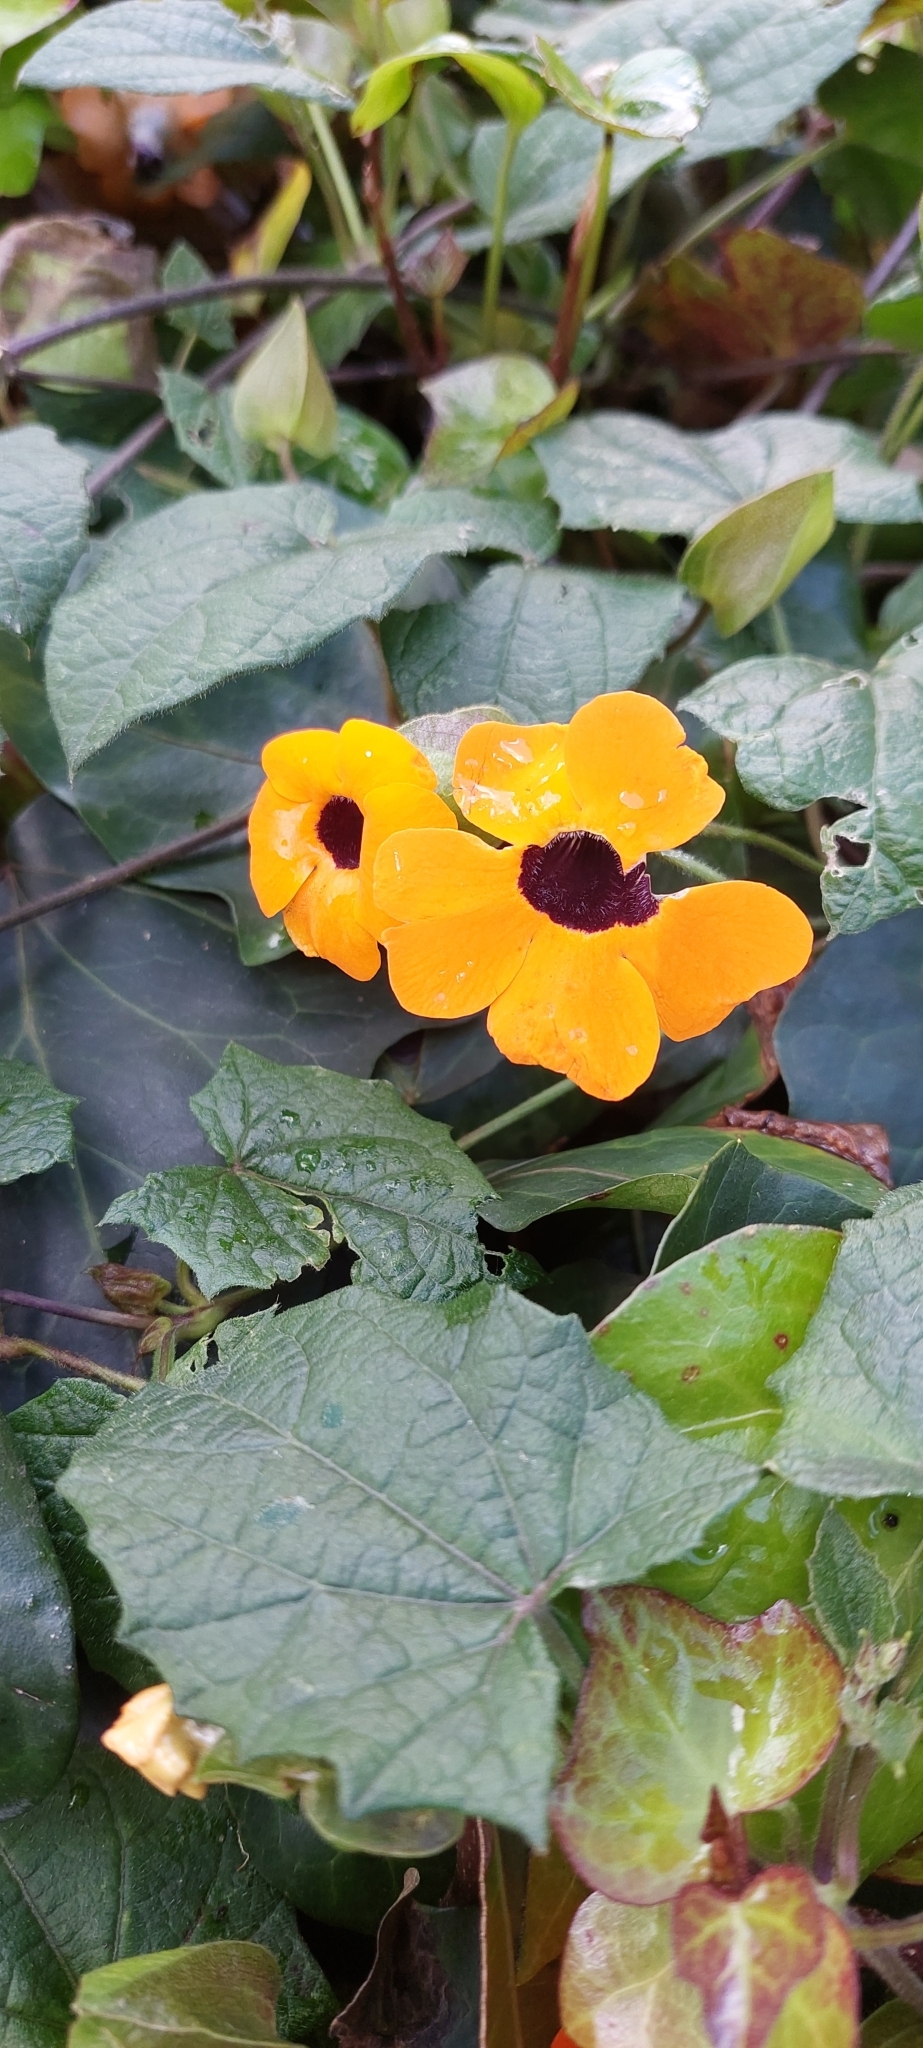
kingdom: Plantae
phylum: Tracheophyta
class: Magnoliopsida
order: Lamiales
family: Acanthaceae
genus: Thunbergia
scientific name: Thunbergia alata
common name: Blackeyed susan vine
